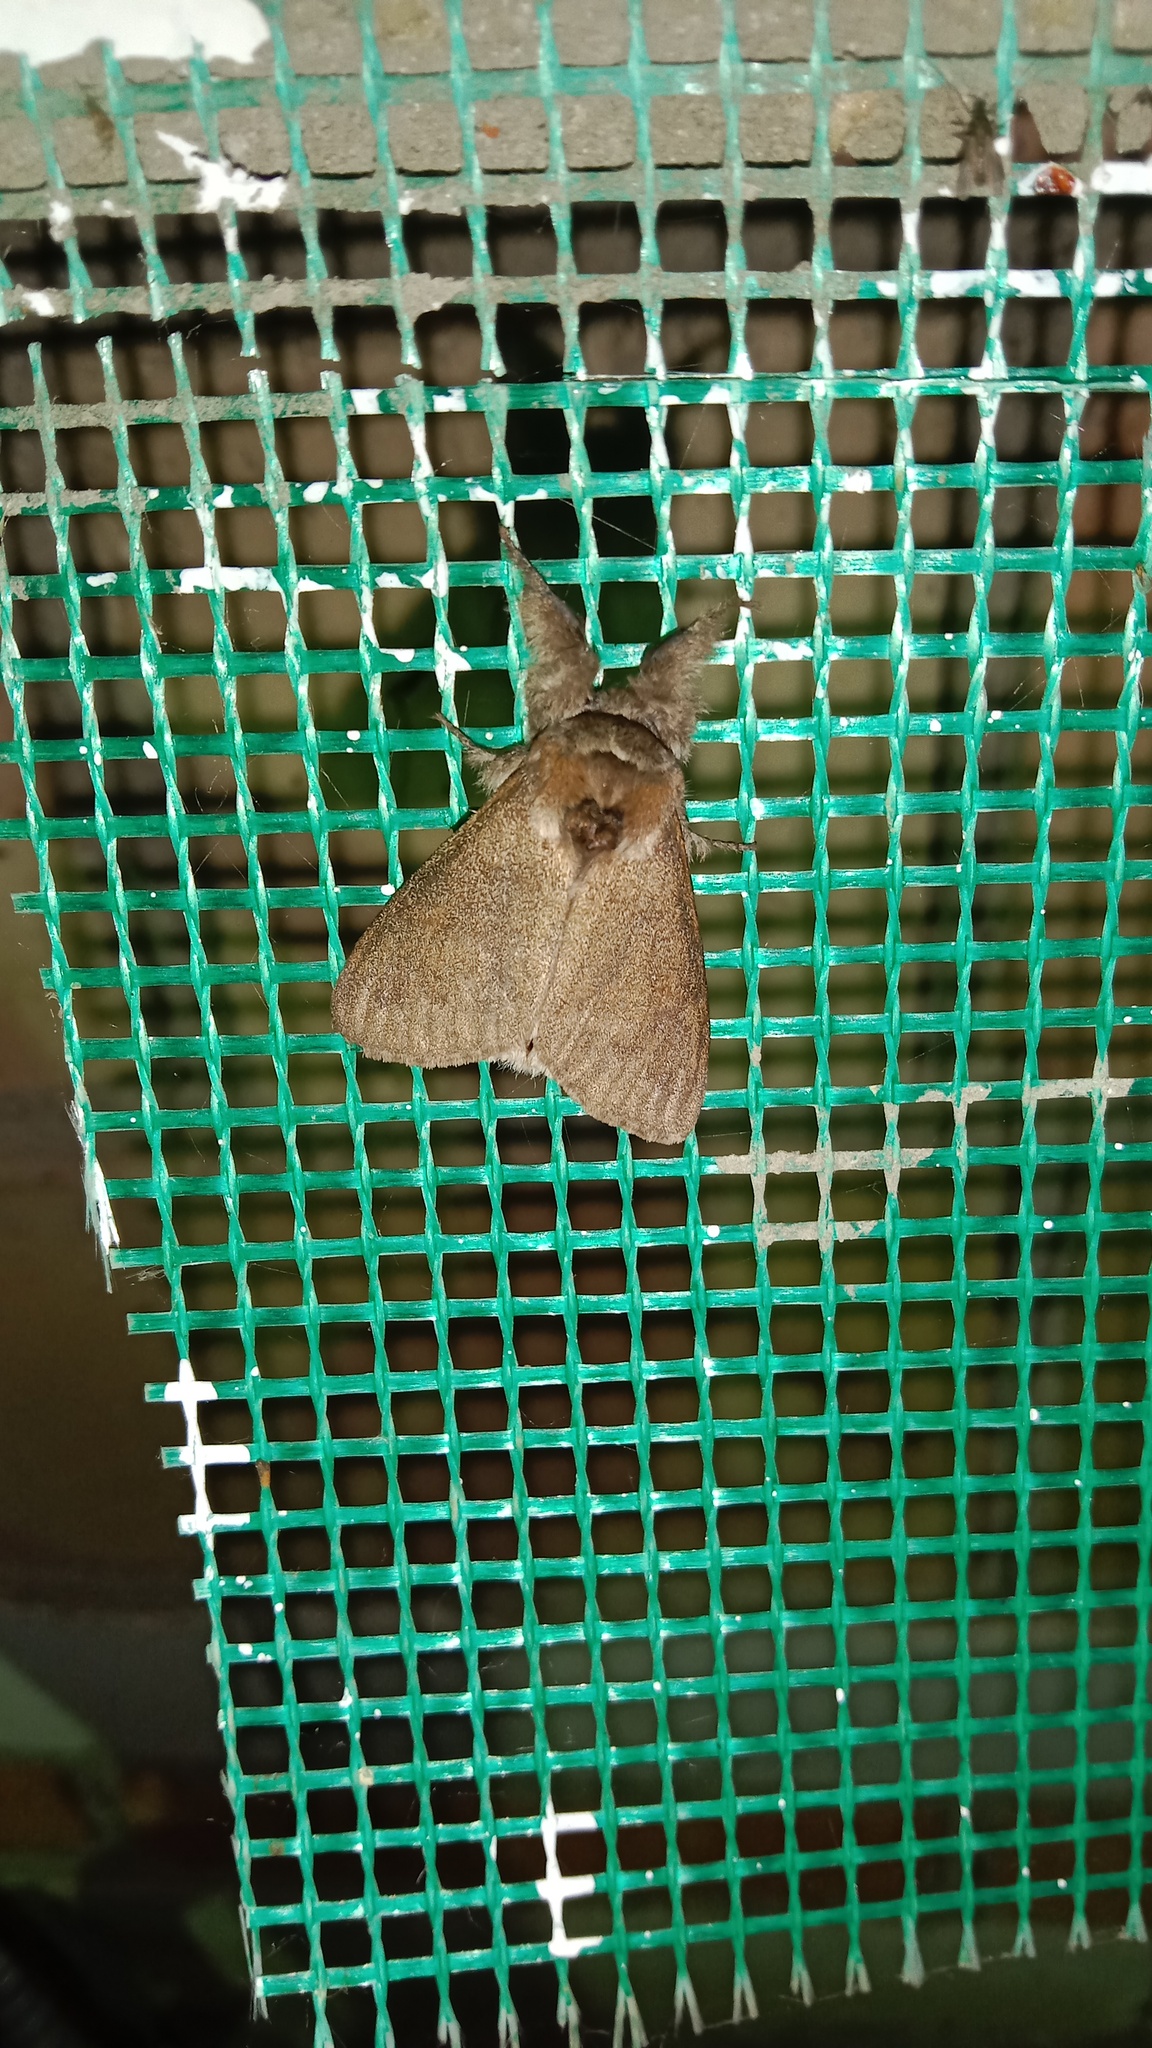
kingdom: Animalia
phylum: Arthropoda
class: Insecta
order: Lepidoptera
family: Erebidae
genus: Calliteara
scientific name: Calliteara pudibunda
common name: Pale tussock
